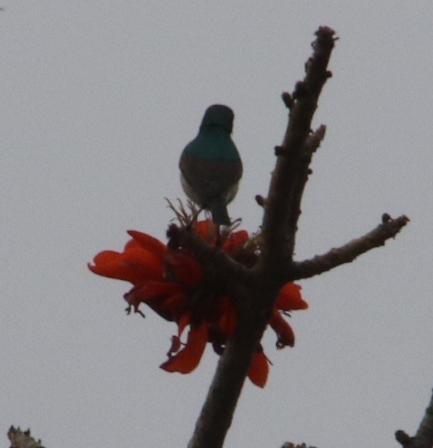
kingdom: Animalia
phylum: Chordata
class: Aves
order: Passeriformes
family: Nectariniidae
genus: Cinnyris
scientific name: Cinnyris chalybeus
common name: Southern double-collared sunbird
